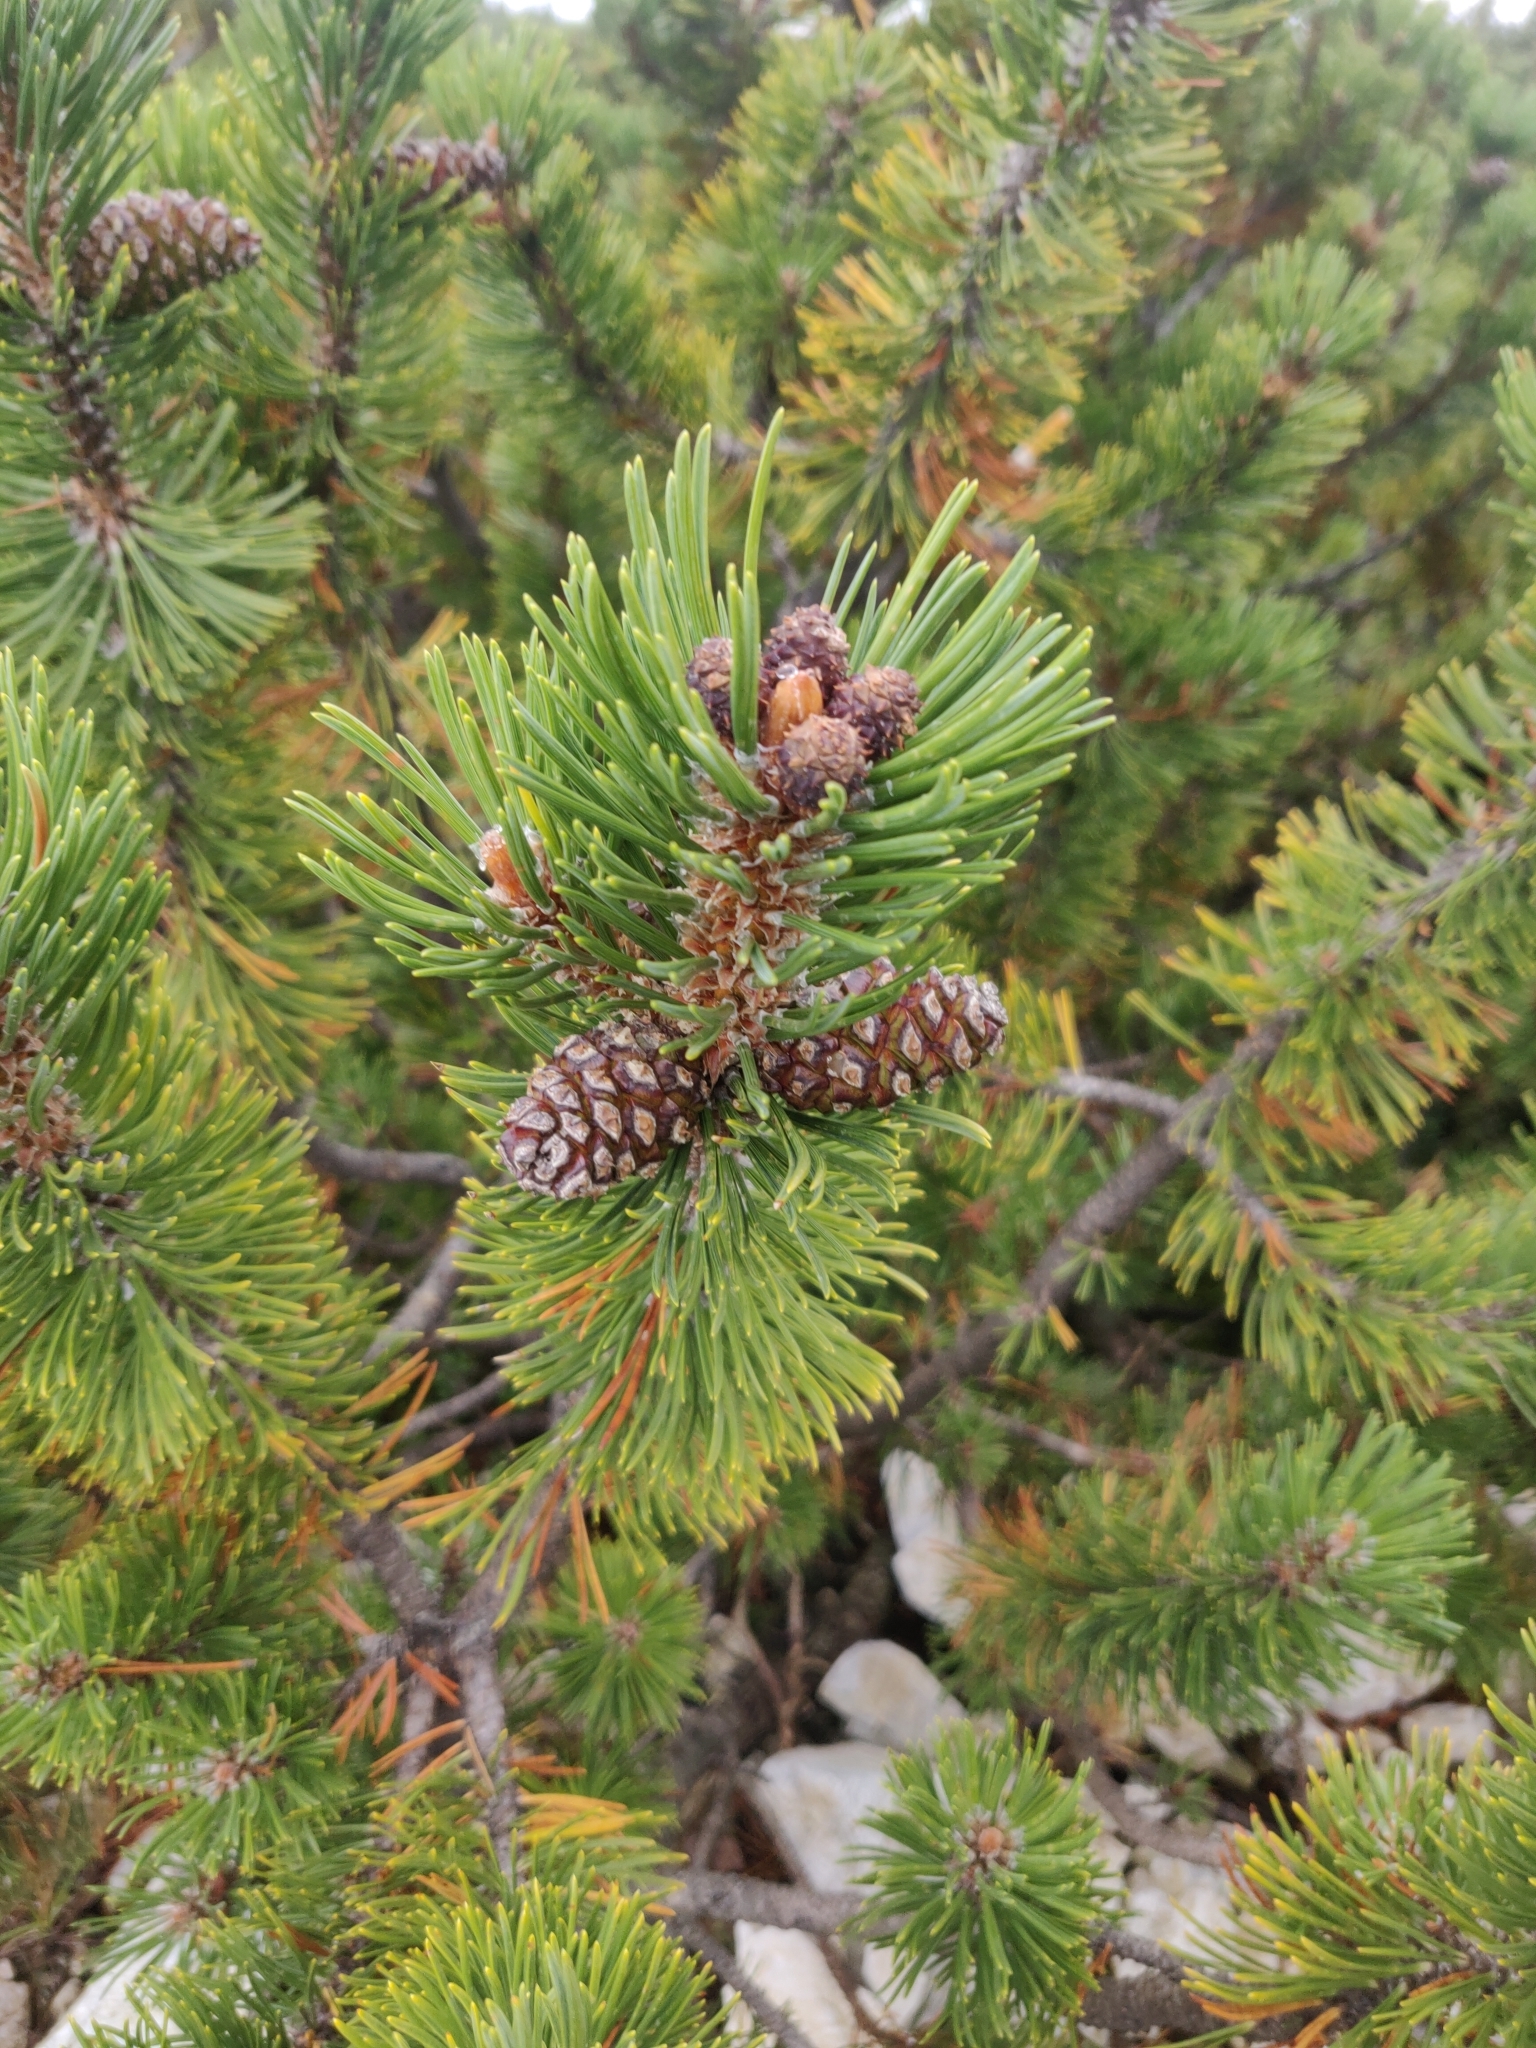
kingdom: Plantae
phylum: Tracheophyta
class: Pinopsida
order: Pinales
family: Pinaceae
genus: Pinus
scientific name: Pinus mugo
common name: Mugo pine
